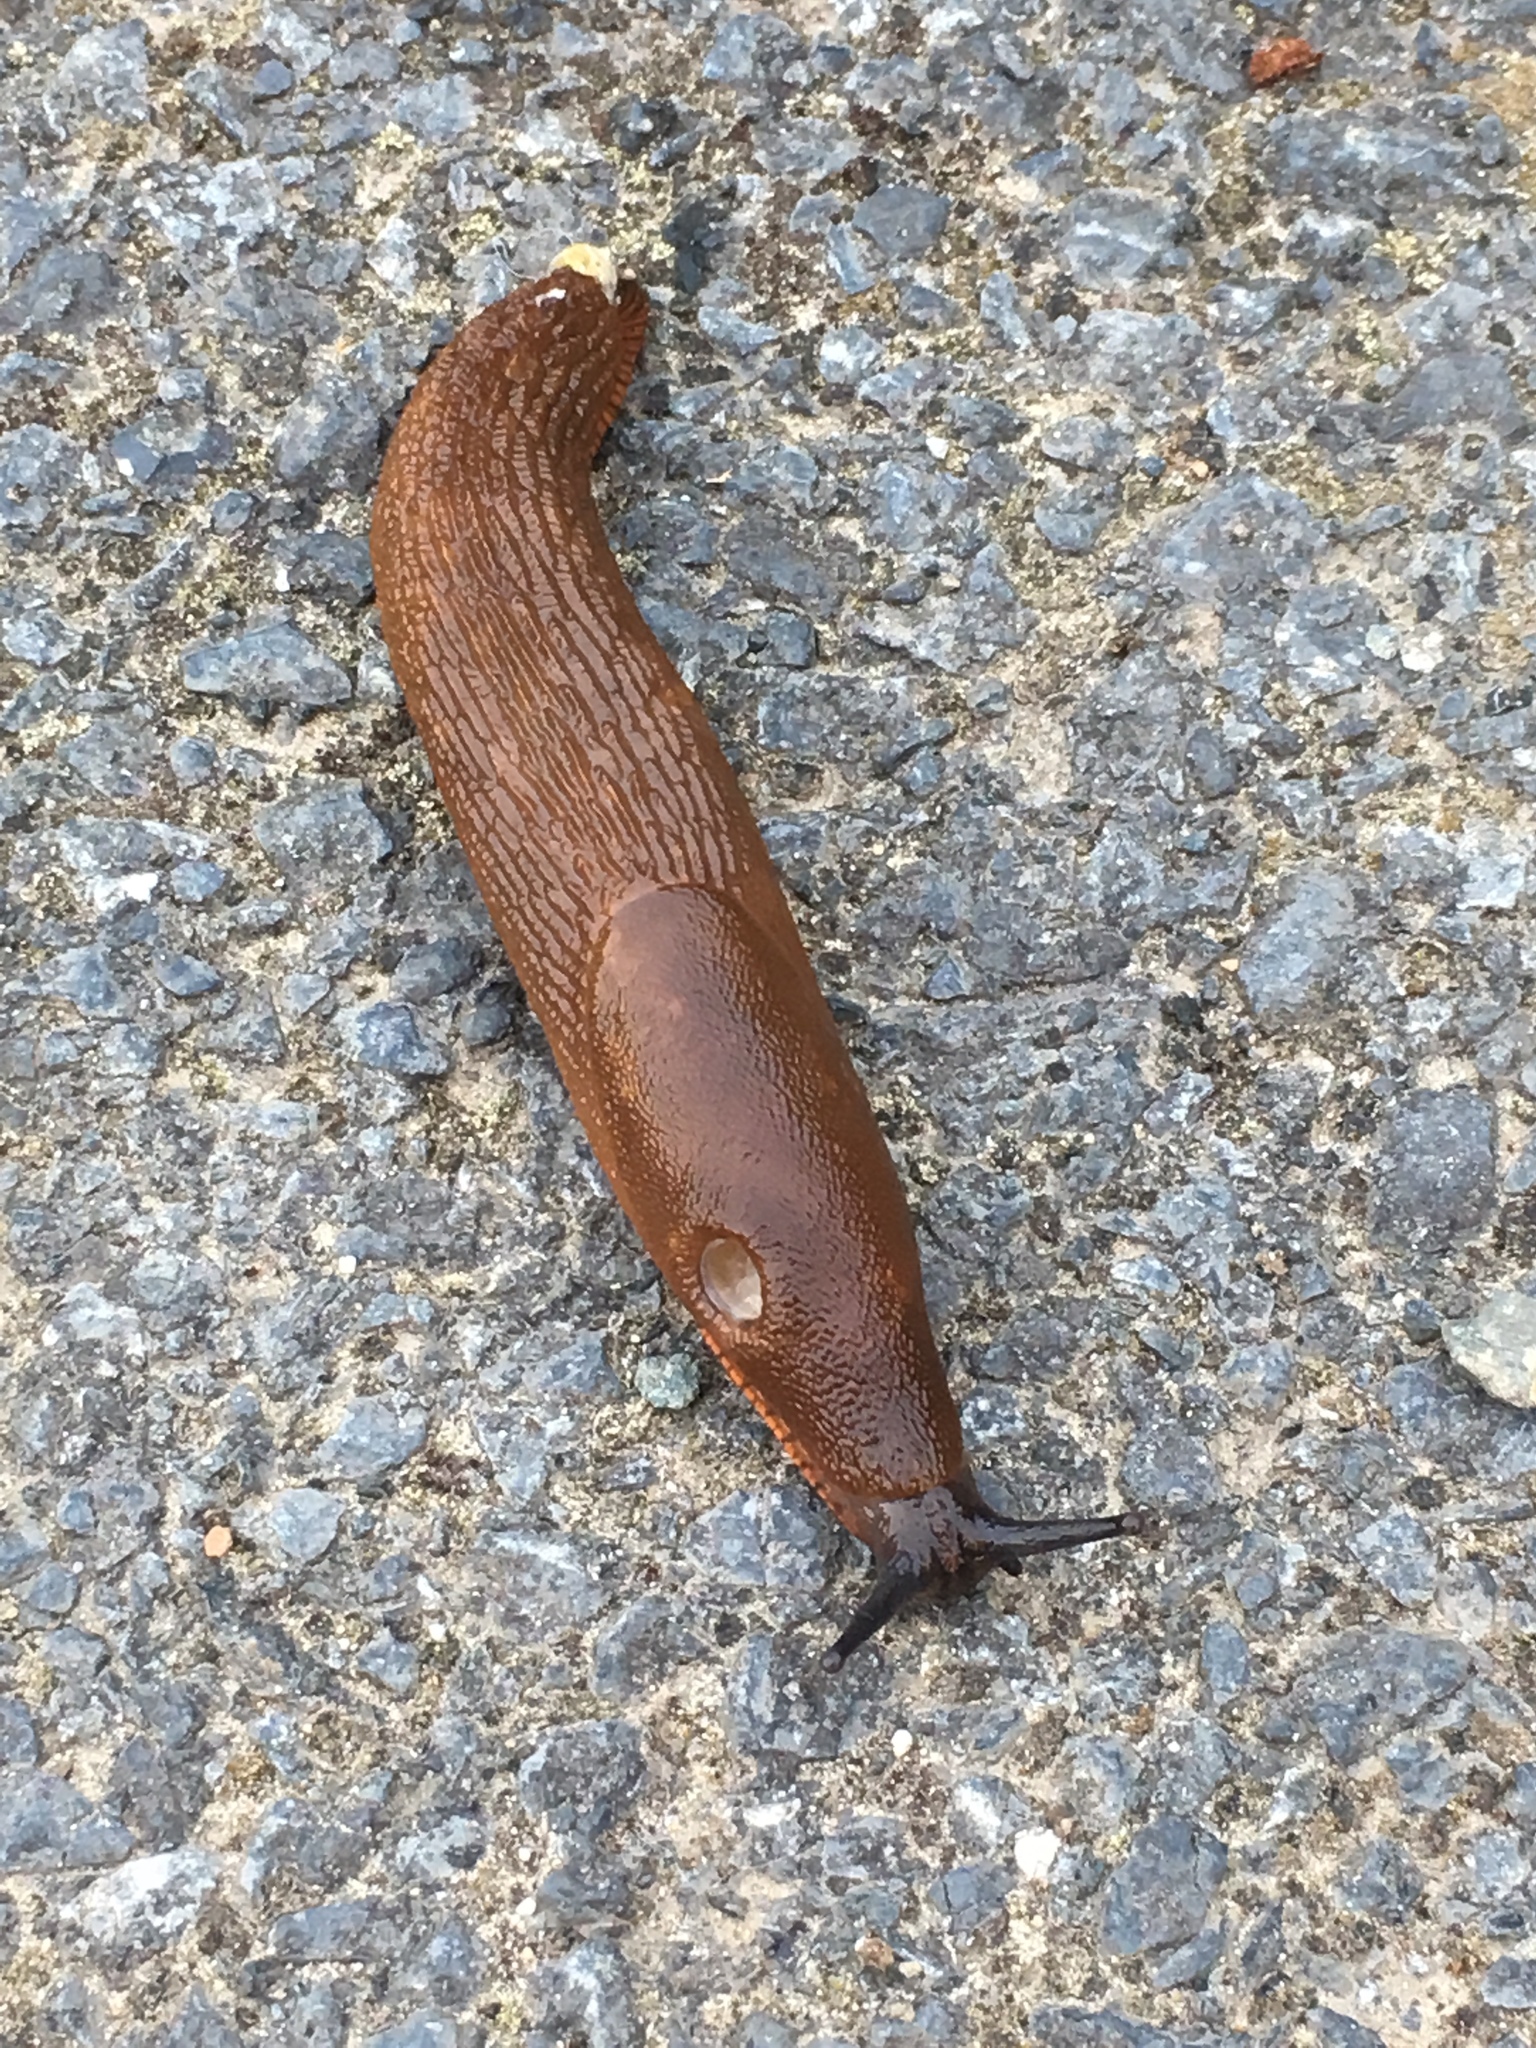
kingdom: Animalia
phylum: Mollusca
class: Gastropoda
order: Stylommatophora
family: Arionidae
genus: Arion
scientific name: Arion
